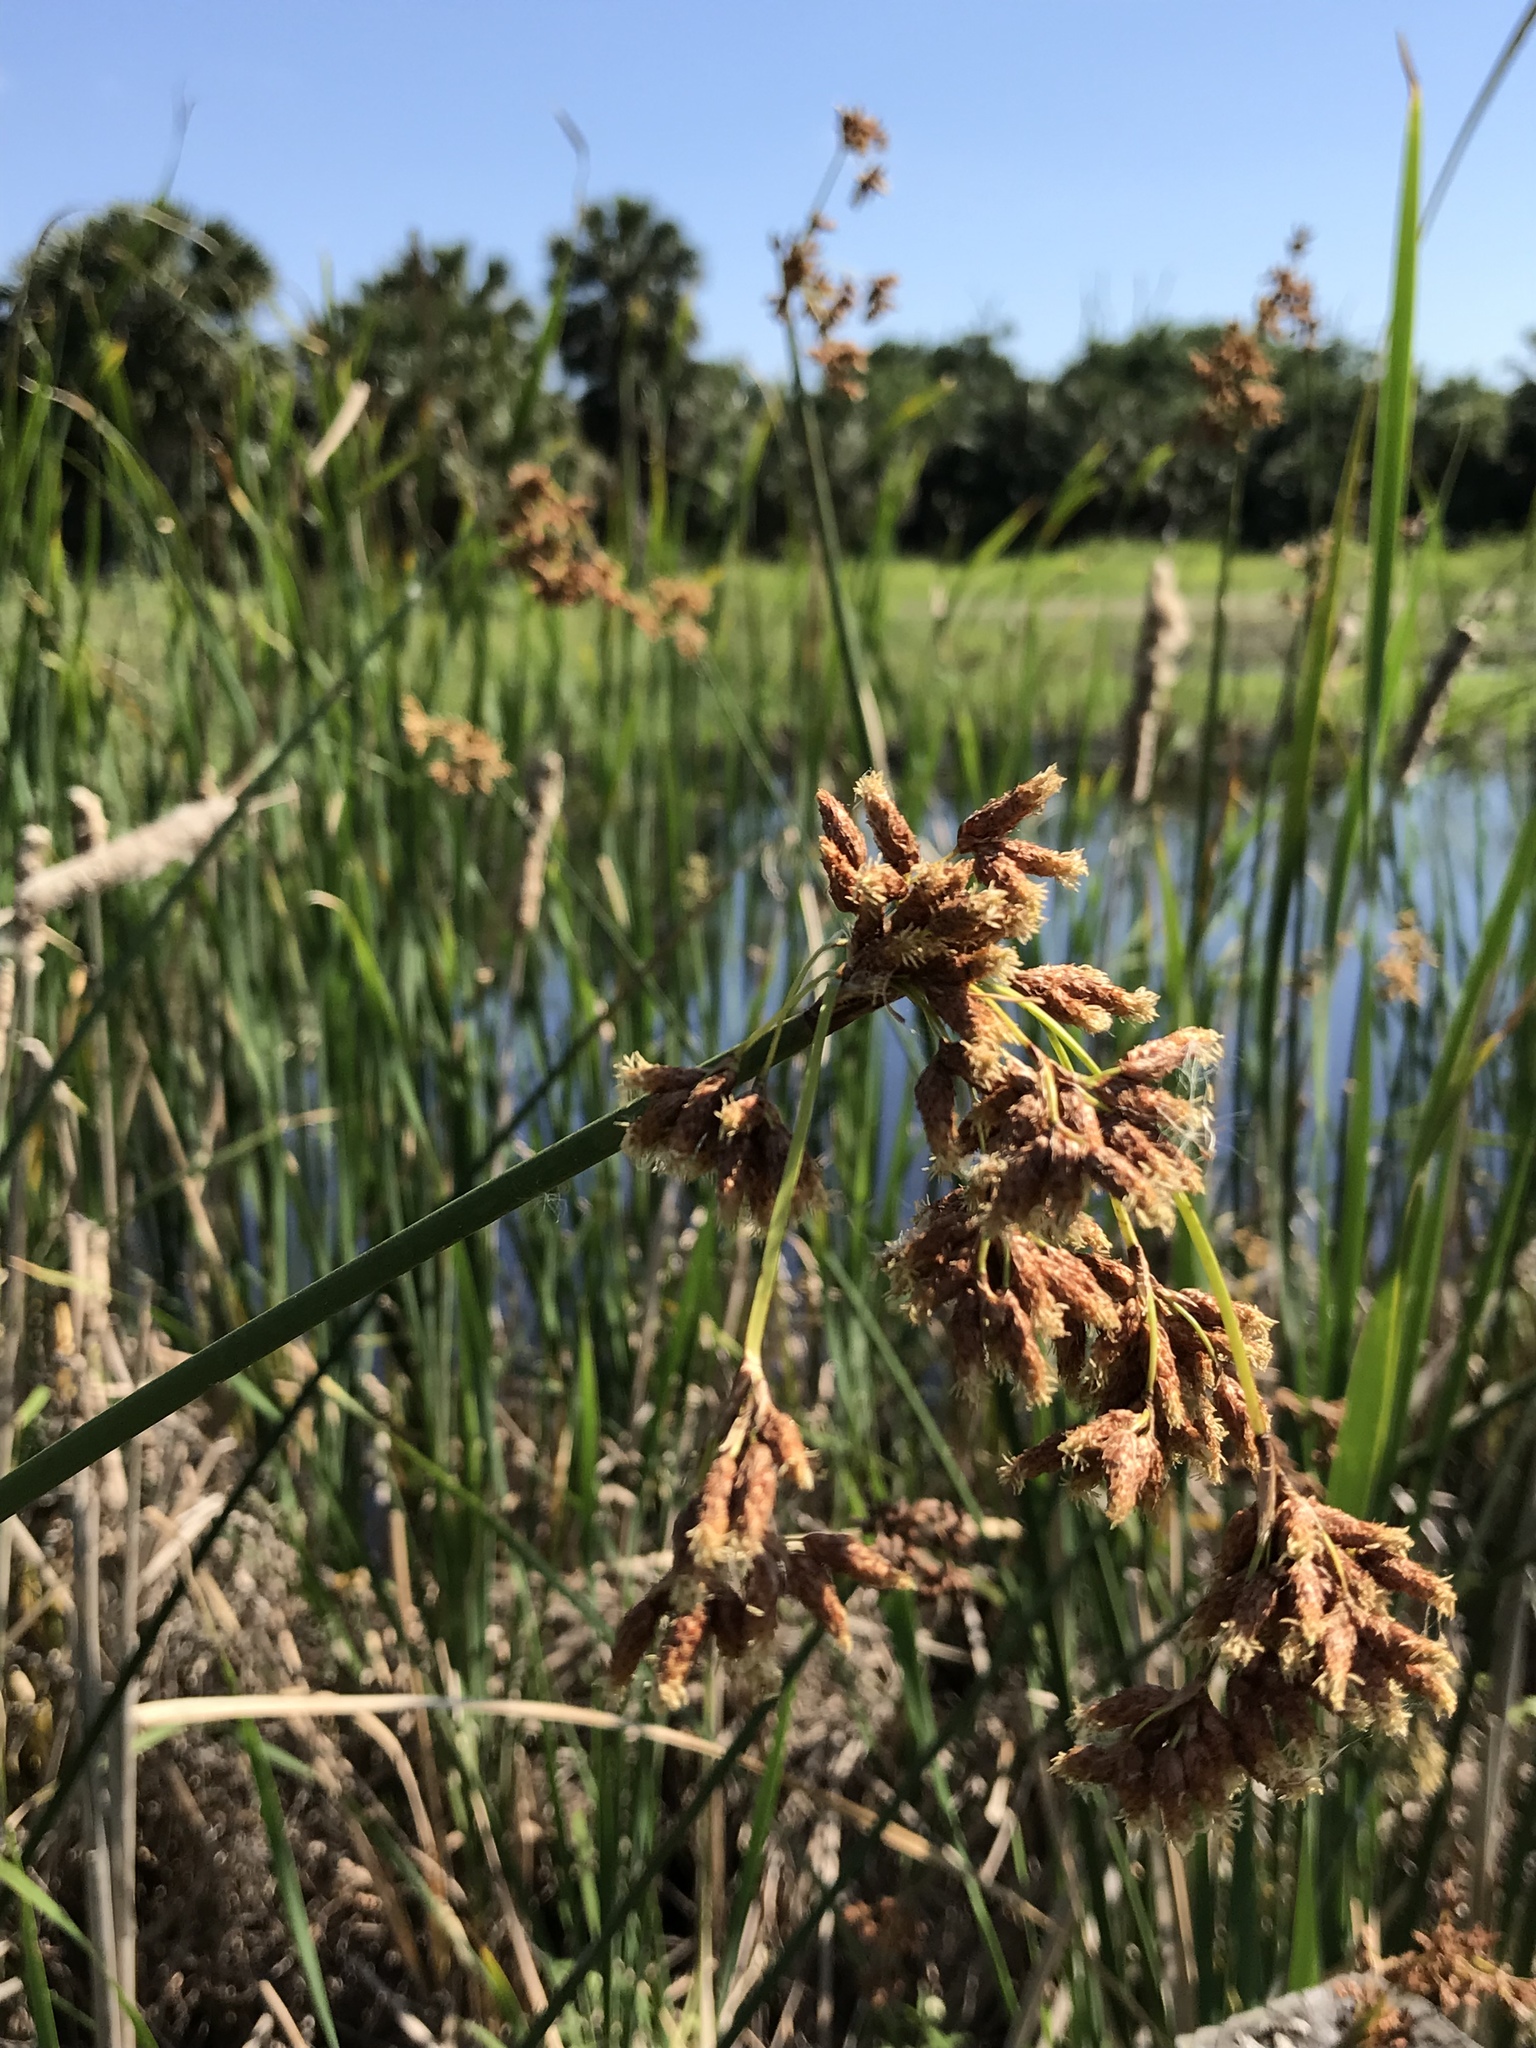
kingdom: Plantae
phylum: Tracheophyta
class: Liliopsida
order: Poales
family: Cyperaceae
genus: Schoenoplectus
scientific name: Schoenoplectus californicus
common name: California bulrush
